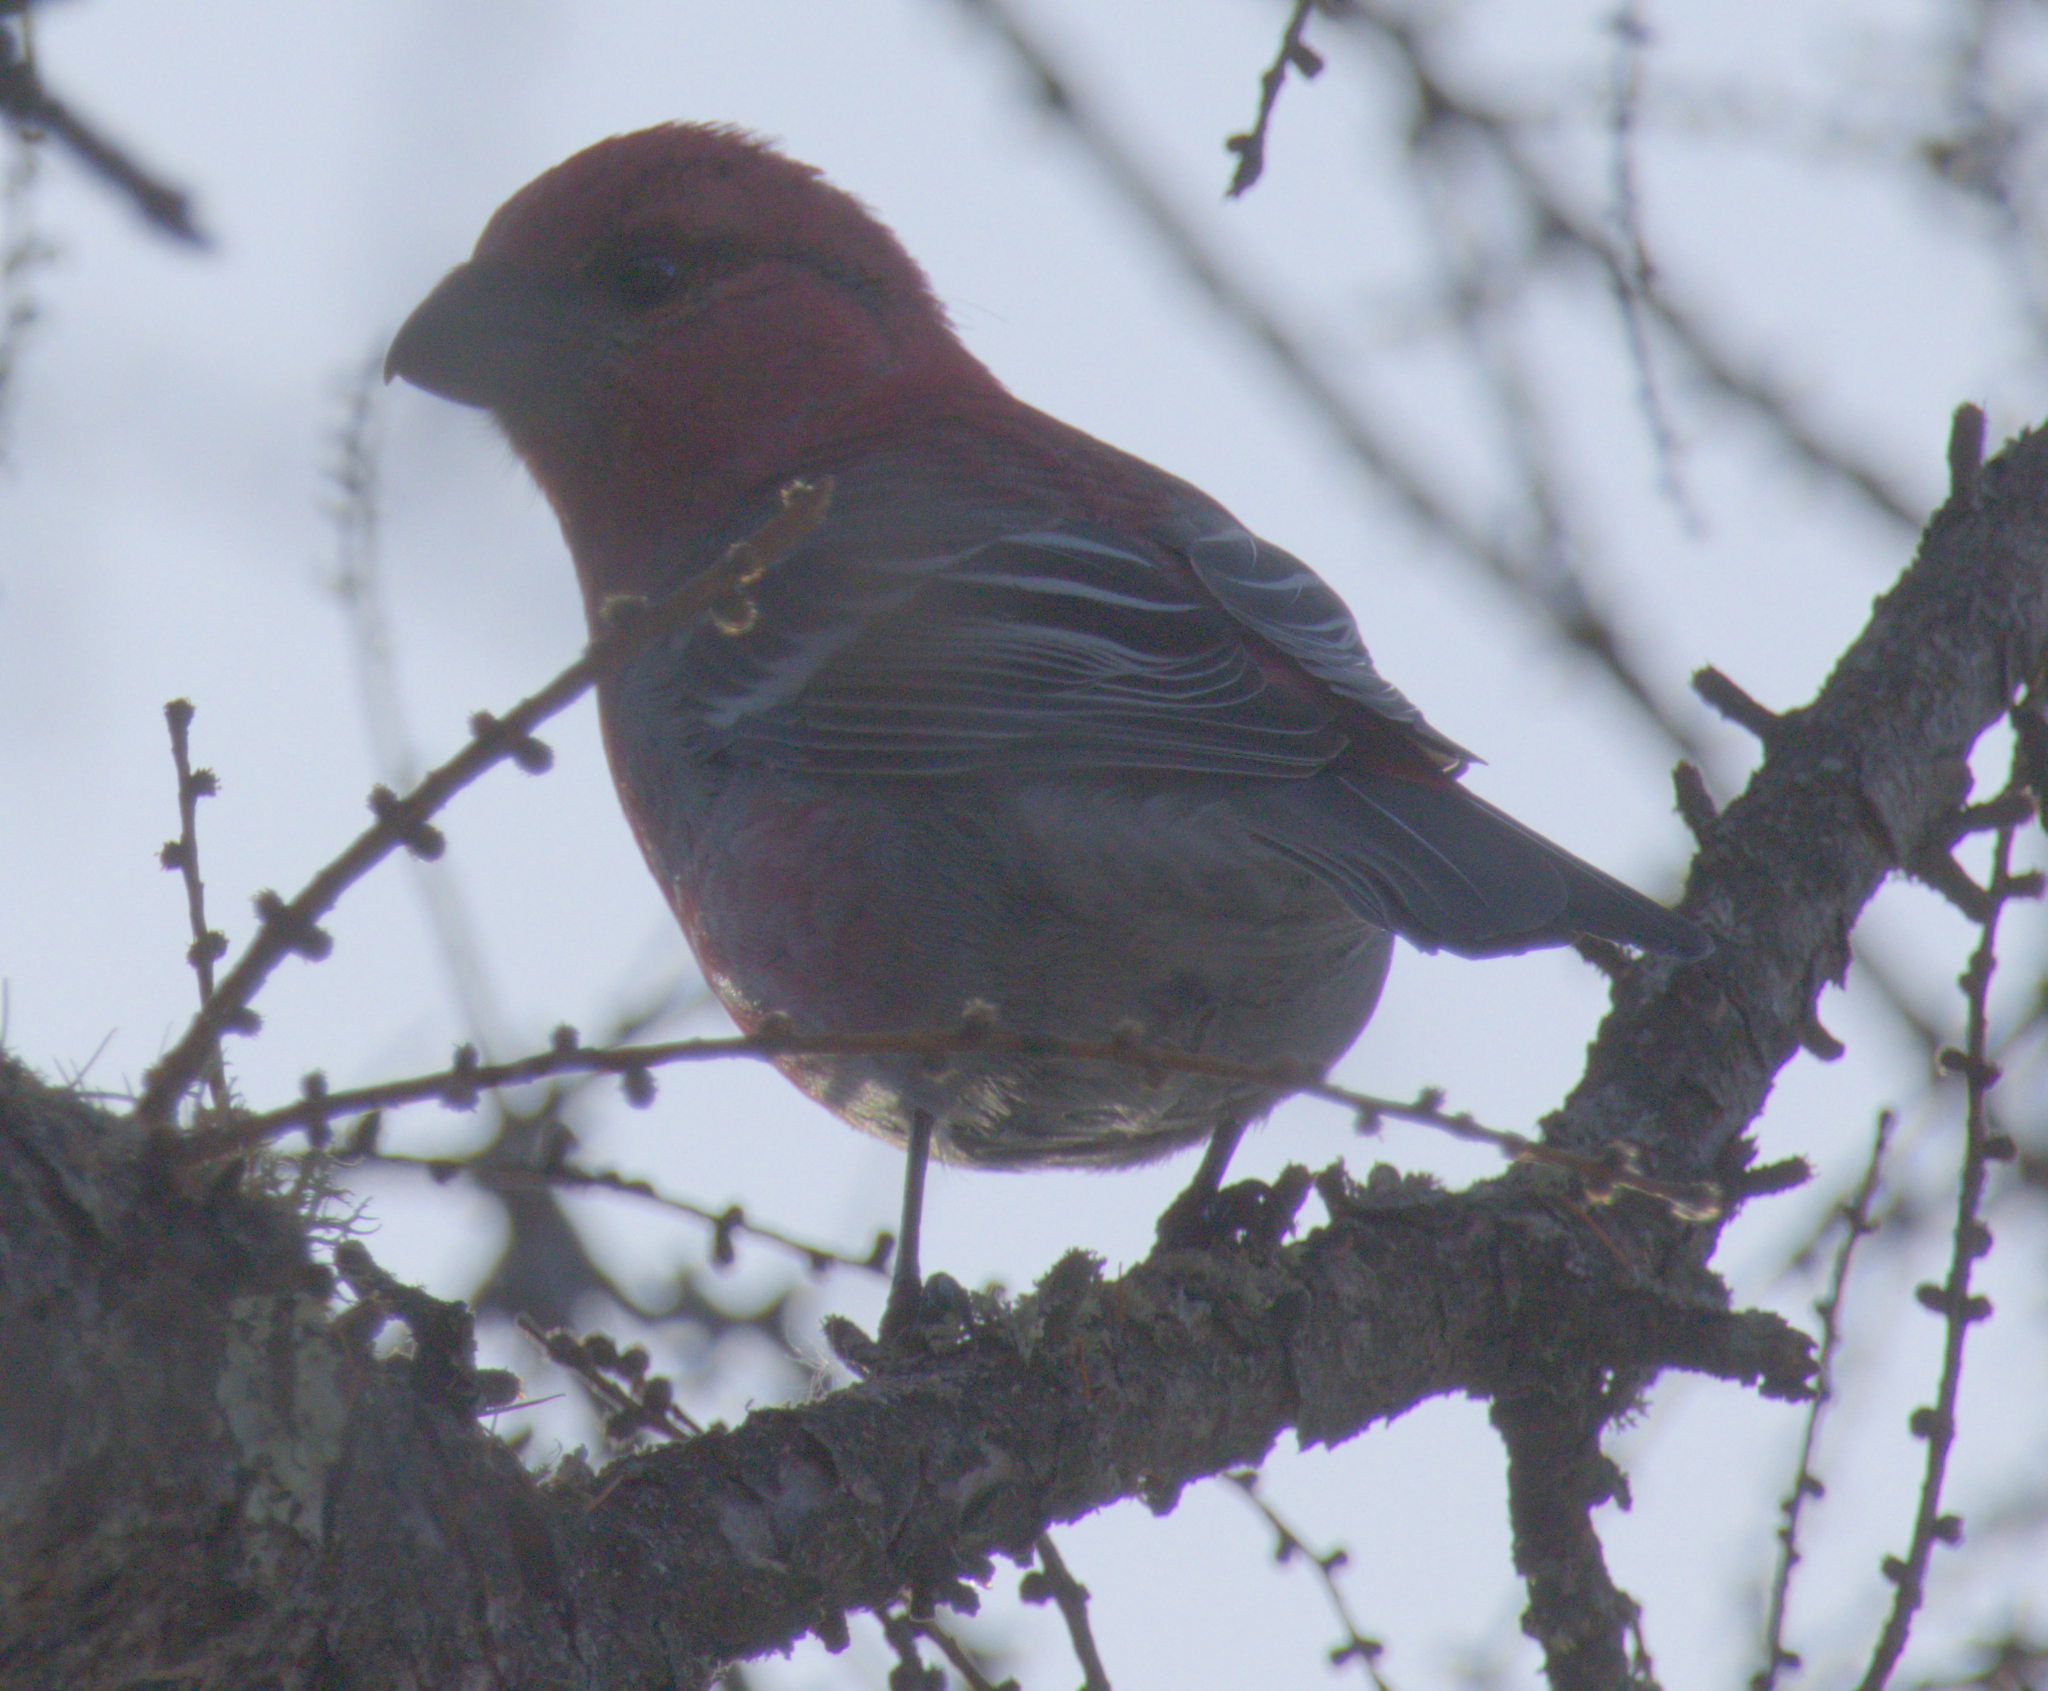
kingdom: Animalia
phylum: Chordata
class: Aves
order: Passeriformes
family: Fringillidae
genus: Pinicola
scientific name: Pinicola enucleator
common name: Pine grosbeak
